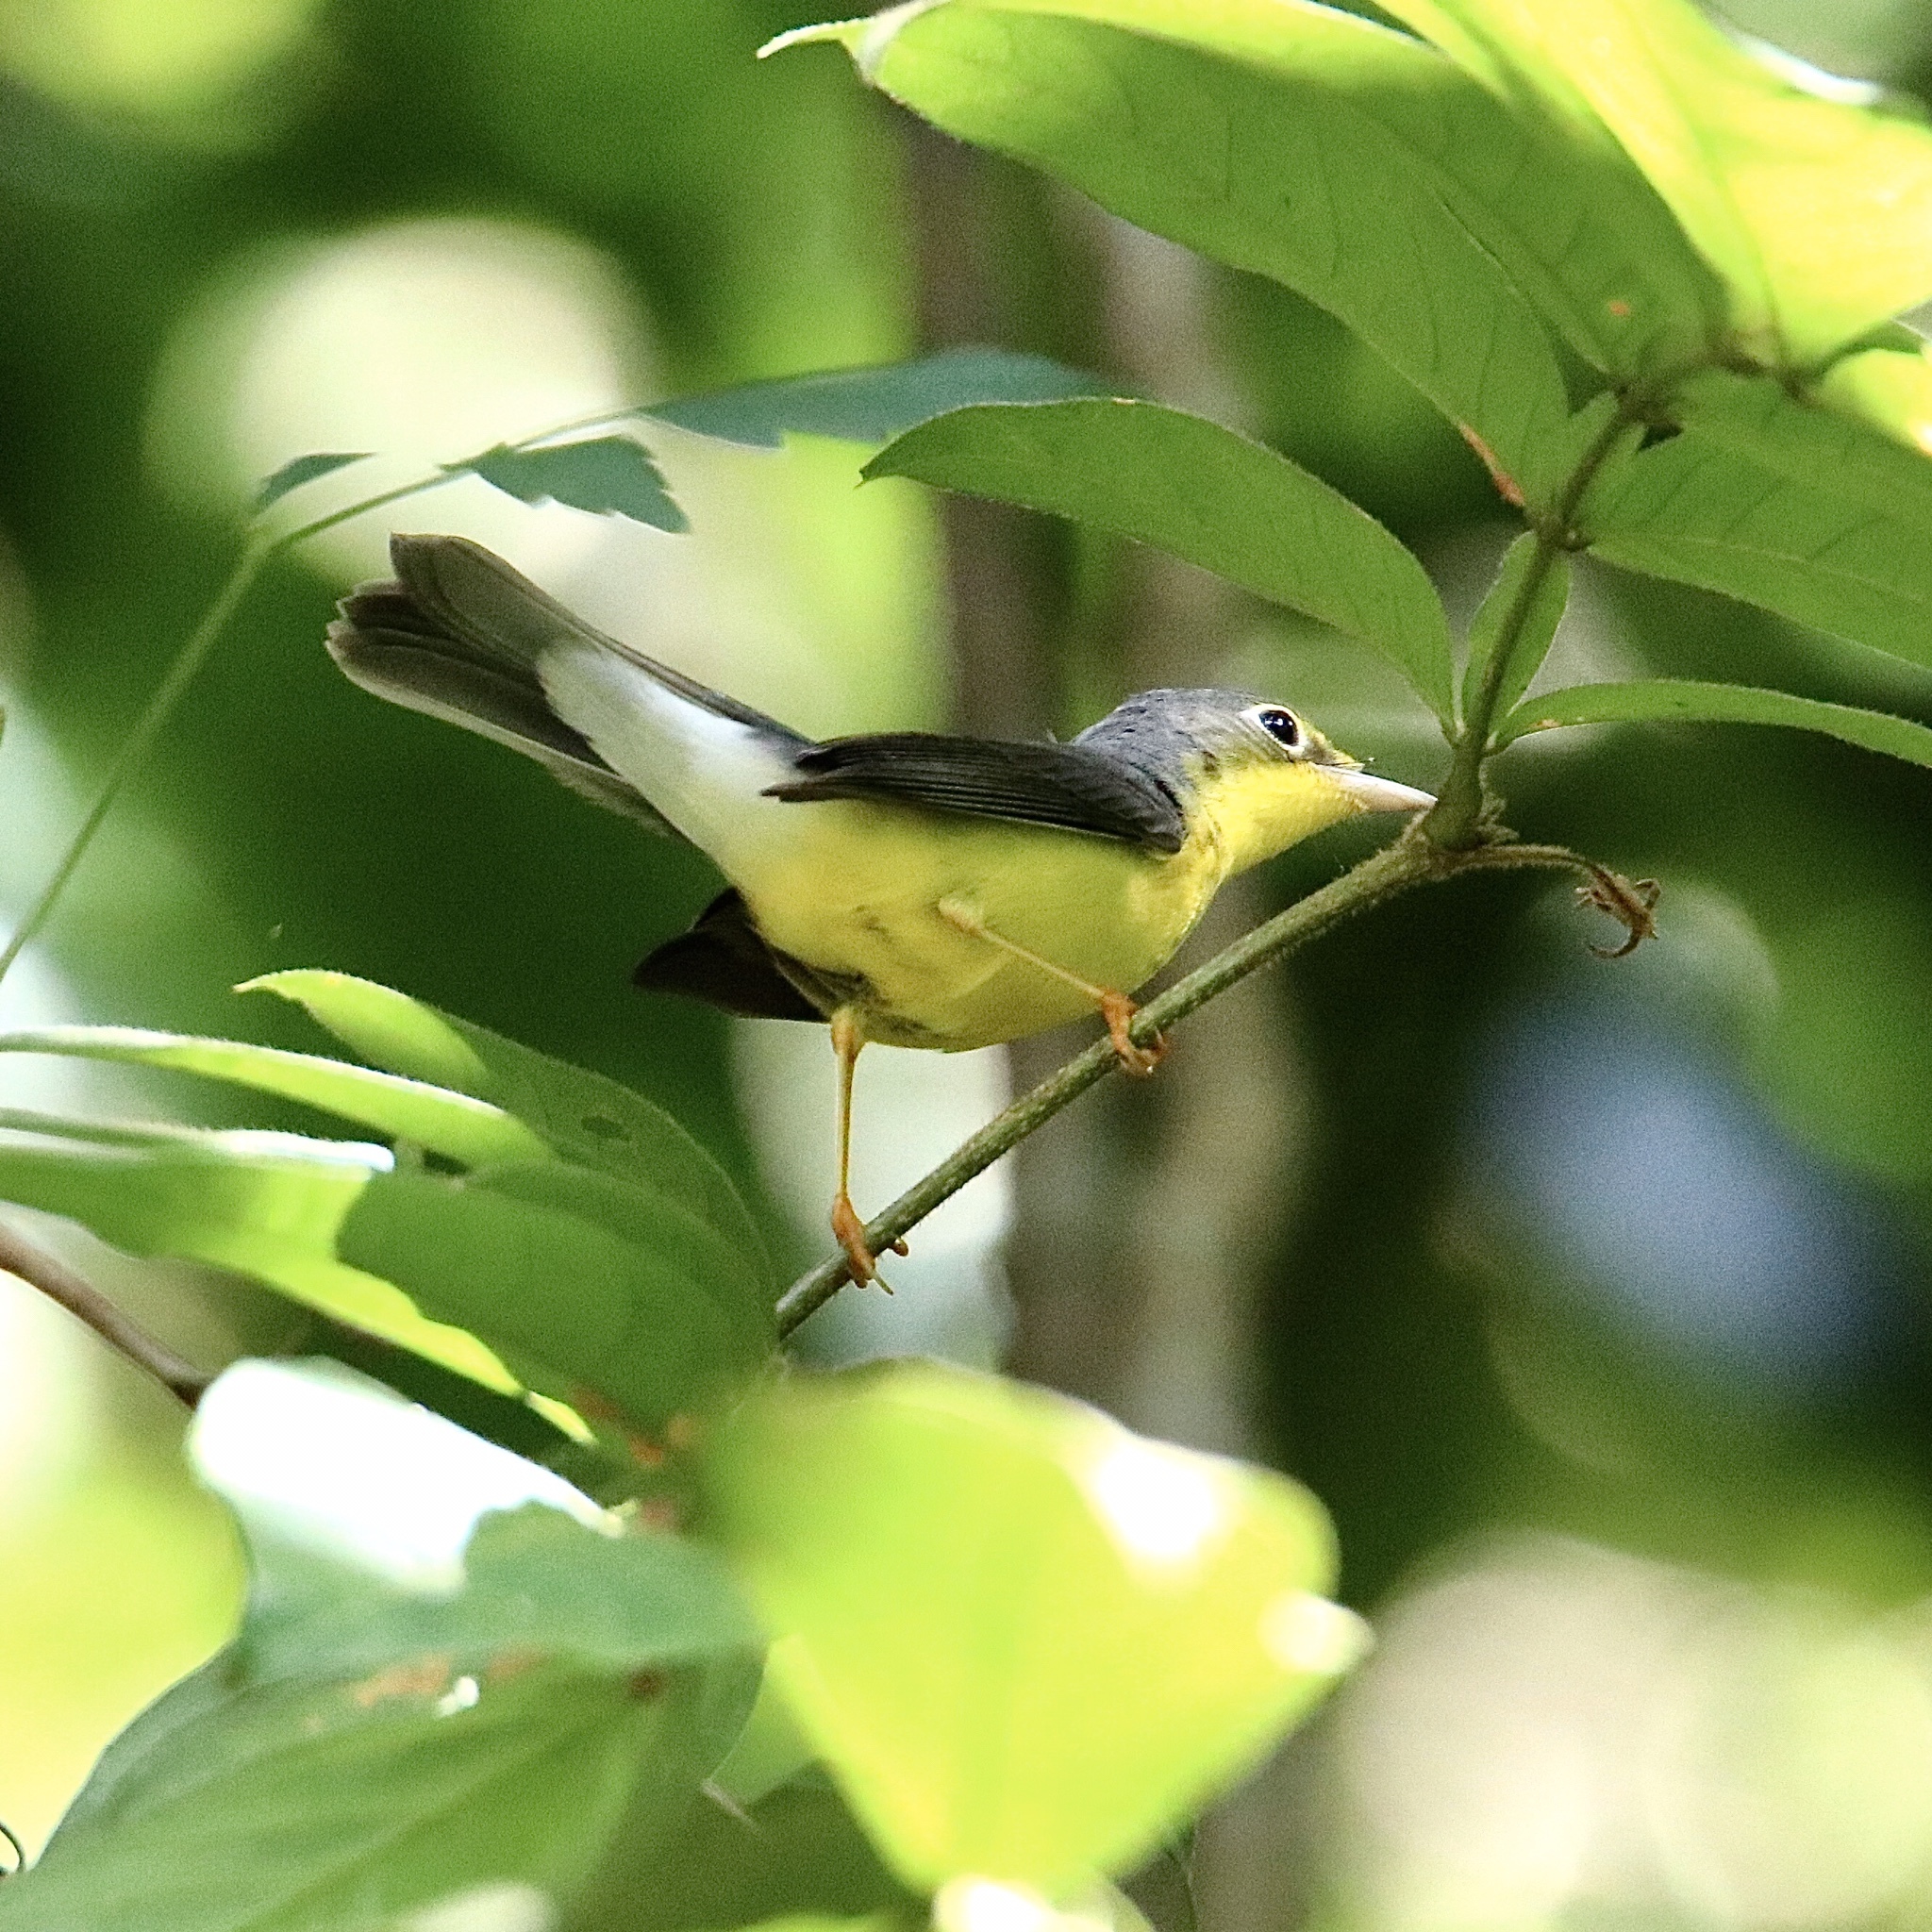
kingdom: Animalia
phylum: Chordata
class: Aves
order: Passeriformes
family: Parulidae
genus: Cardellina
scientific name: Cardellina canadensis
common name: Canada warbler
